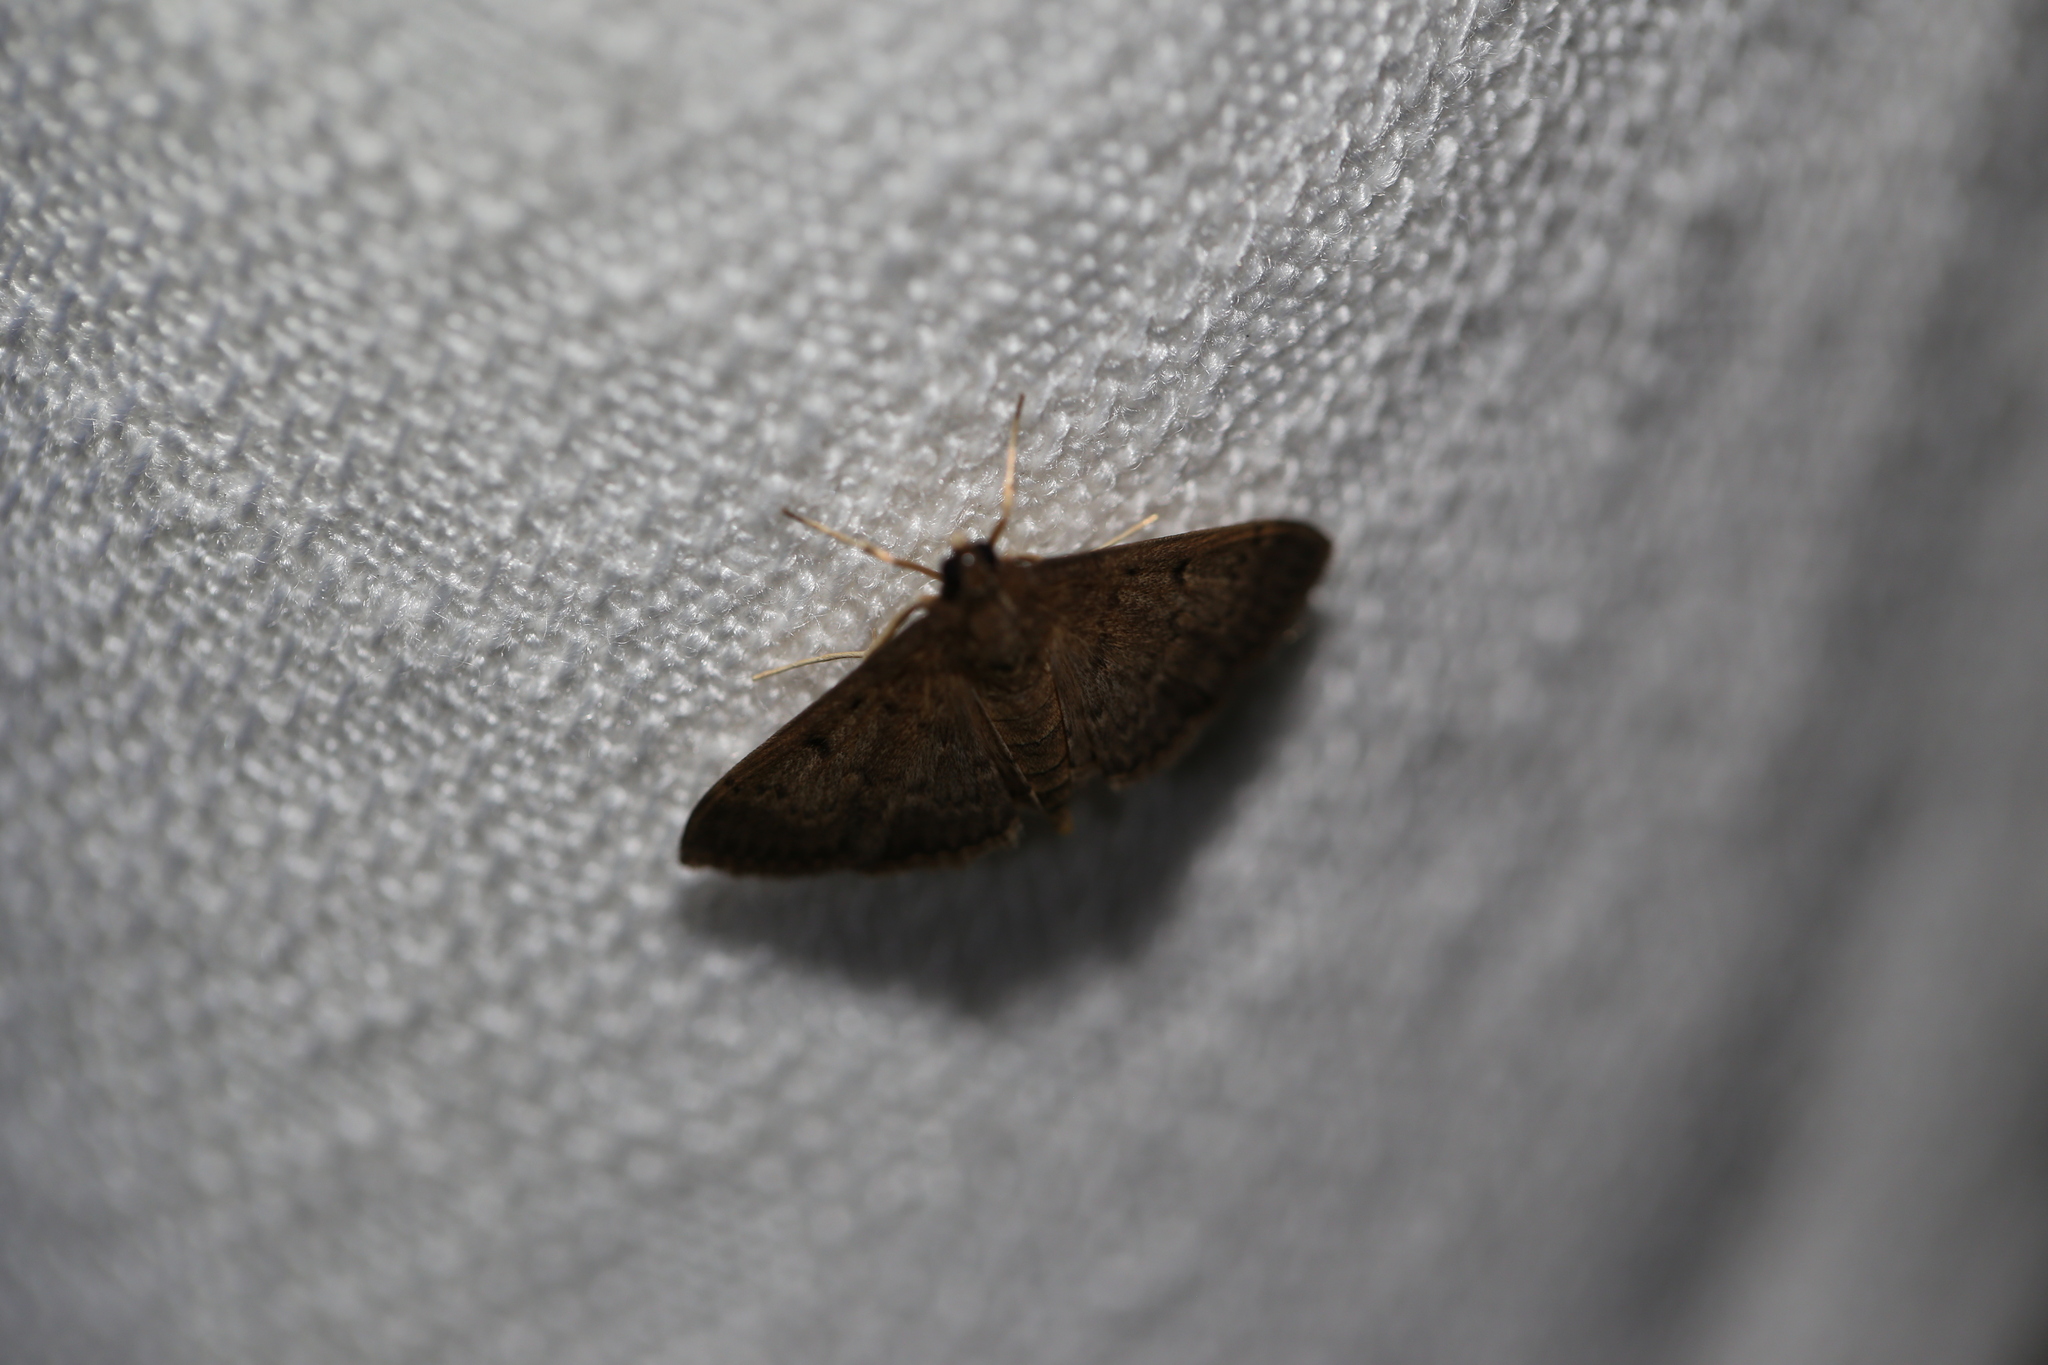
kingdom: Animalia
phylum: Arthropoda
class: Insecta
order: Lepidoptera
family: Crambidae
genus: Herpetogramma
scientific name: Herpetogramma licarsisalis
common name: Grass webworm
